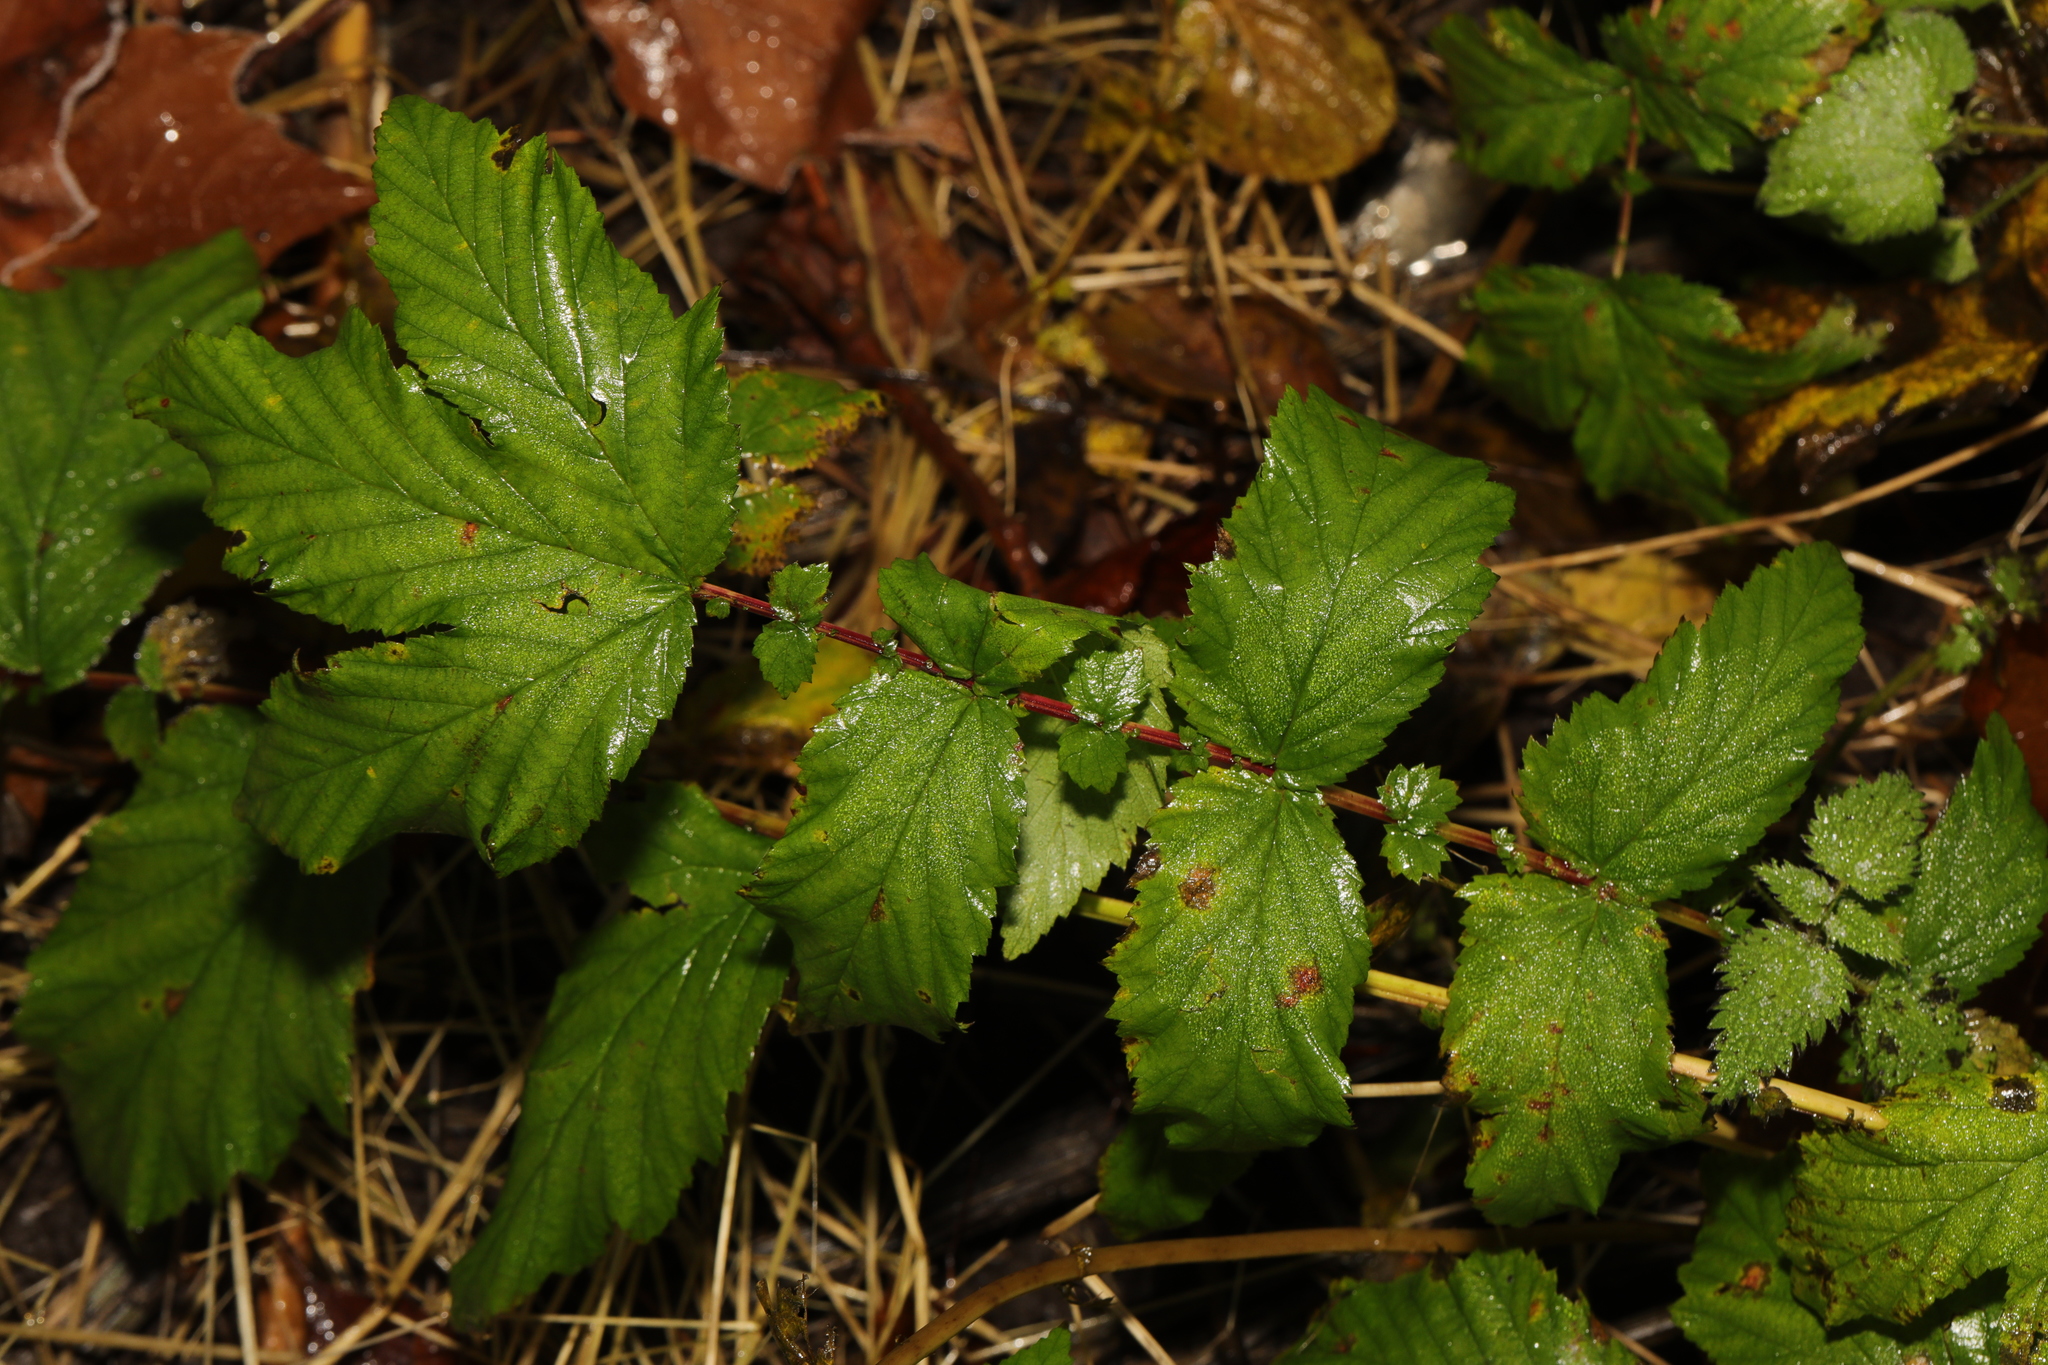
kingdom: Plantae
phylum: Tracheophyta
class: Magnoliopsida
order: Rosales
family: Rosaceae
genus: Filipendula
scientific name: Filipendula ulmaria
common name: Meadowsweet
